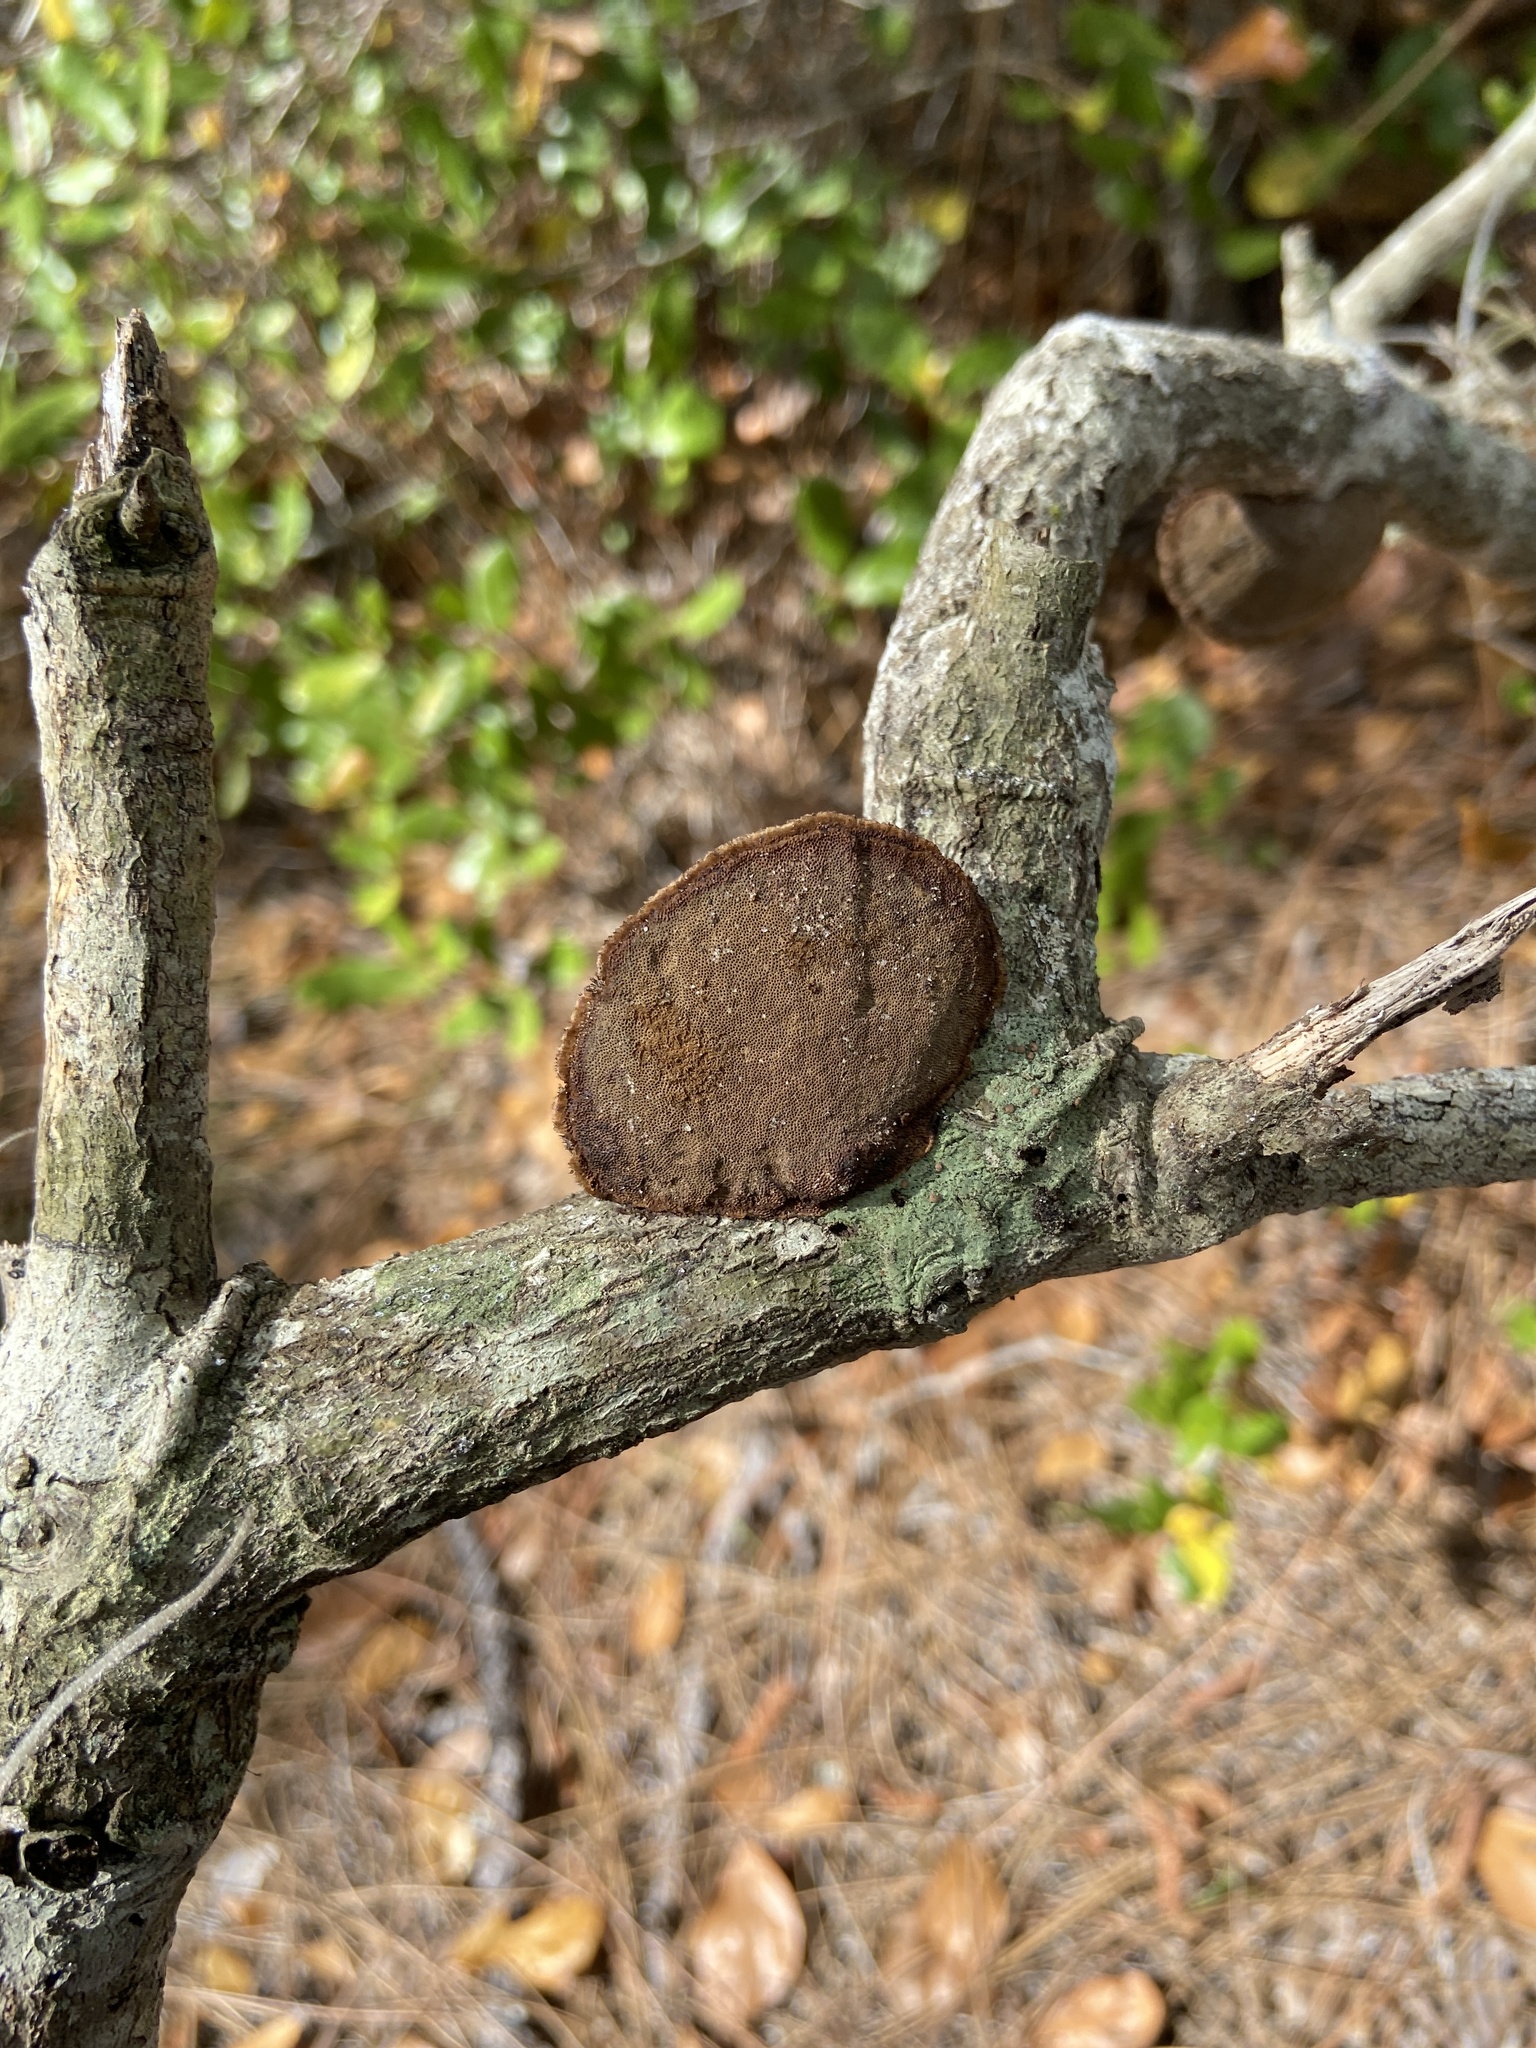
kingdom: Fungi
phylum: Basidiomycota
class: Agaricomycetes
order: Polyporales
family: Cerrenaceae
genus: Cerrena
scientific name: Cerrena hydnoides
